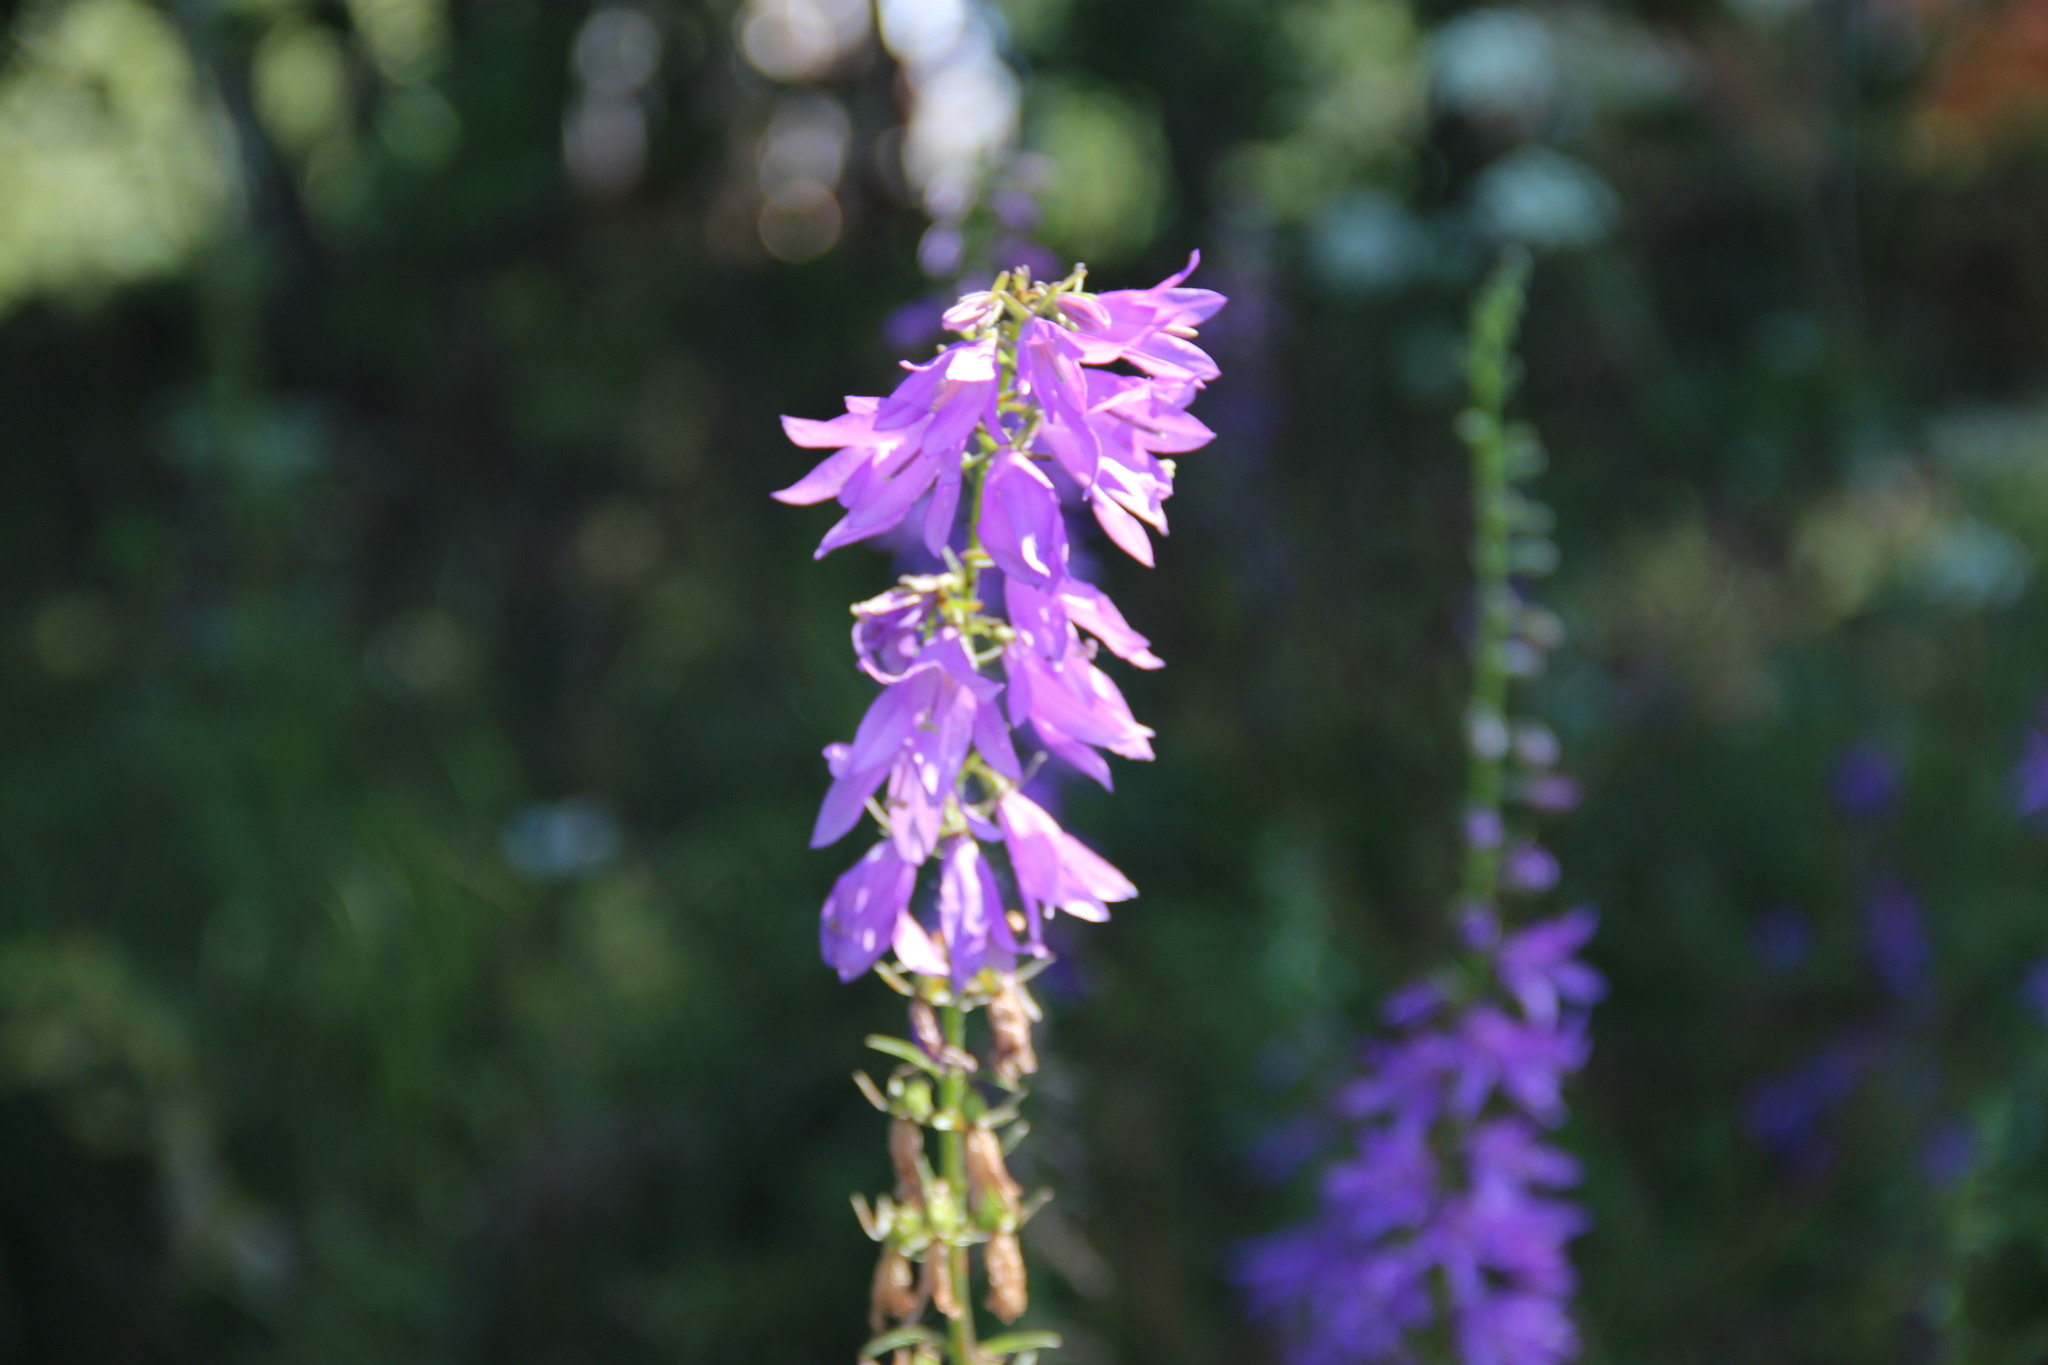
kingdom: Plantae
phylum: Tracheophyta
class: Magnoliopsida
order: Asterales
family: Campanulaceae
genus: Campanula
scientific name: Campanula rapunculoides
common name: Creeping bellflower
